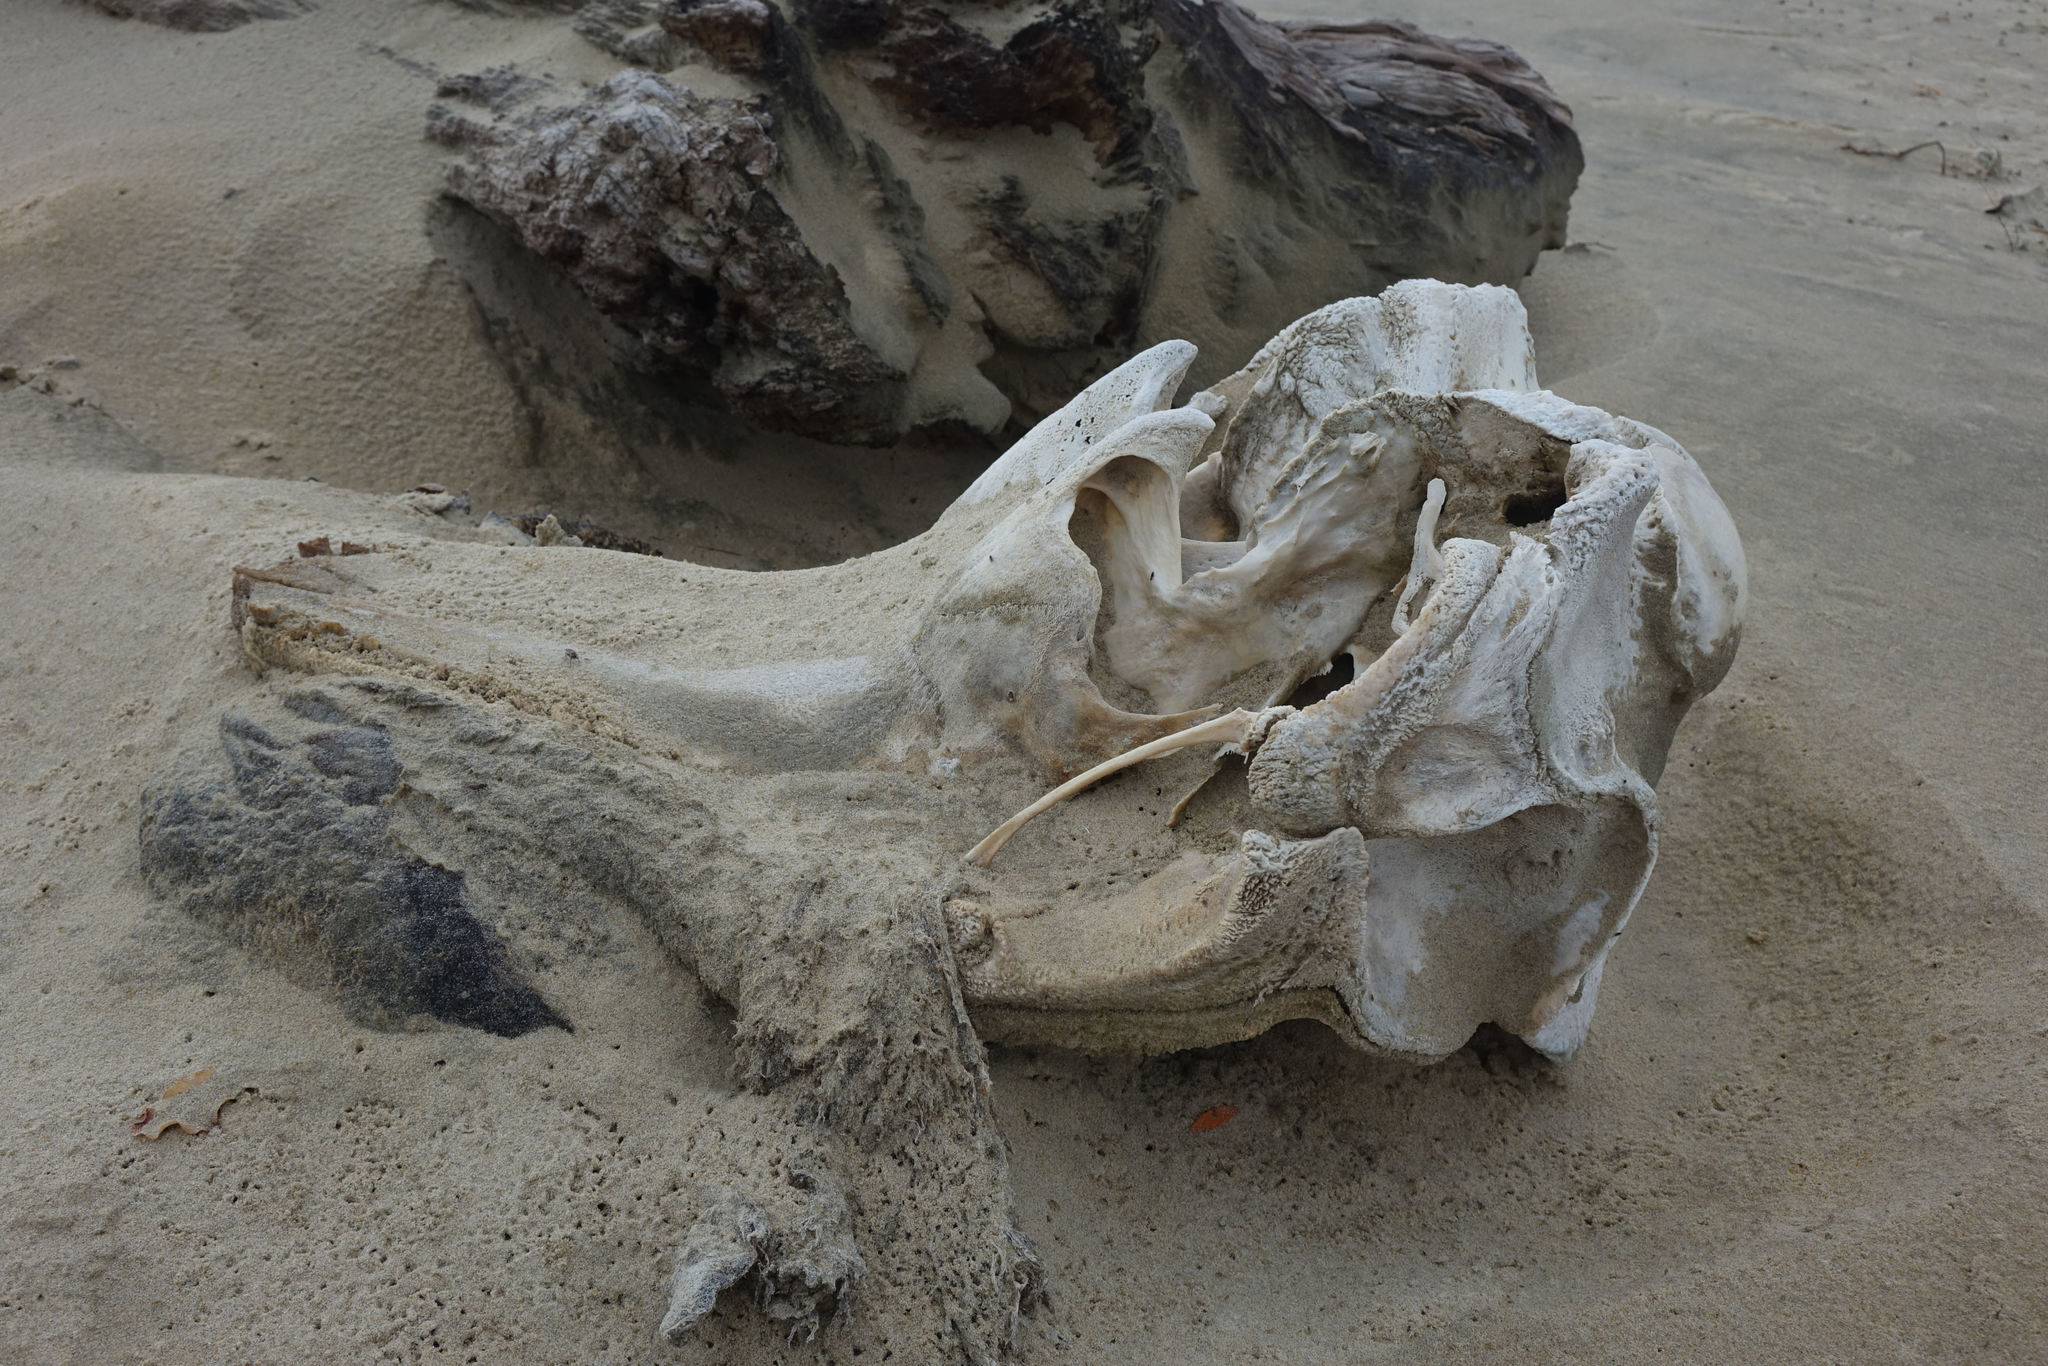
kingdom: Animalia
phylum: Chordata
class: Mammalia
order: Cetacea
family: Delphinidae
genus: Globicephala
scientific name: Globicephala melas
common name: Long-finned pilot whale
